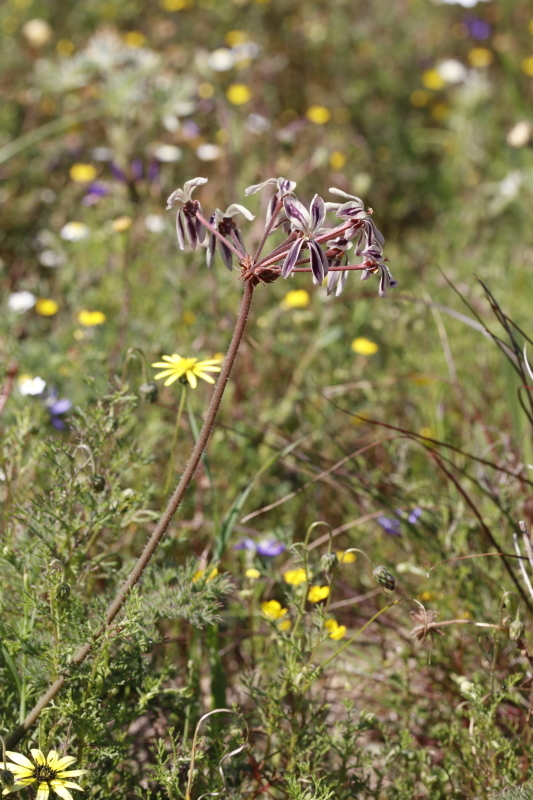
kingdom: Plantae
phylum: Tracheophyta
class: Magnoliopsida
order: Geraniales
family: Geraniaceae
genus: Pelargonium
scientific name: Pelargonium triste
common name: Night-scent pelargonium
